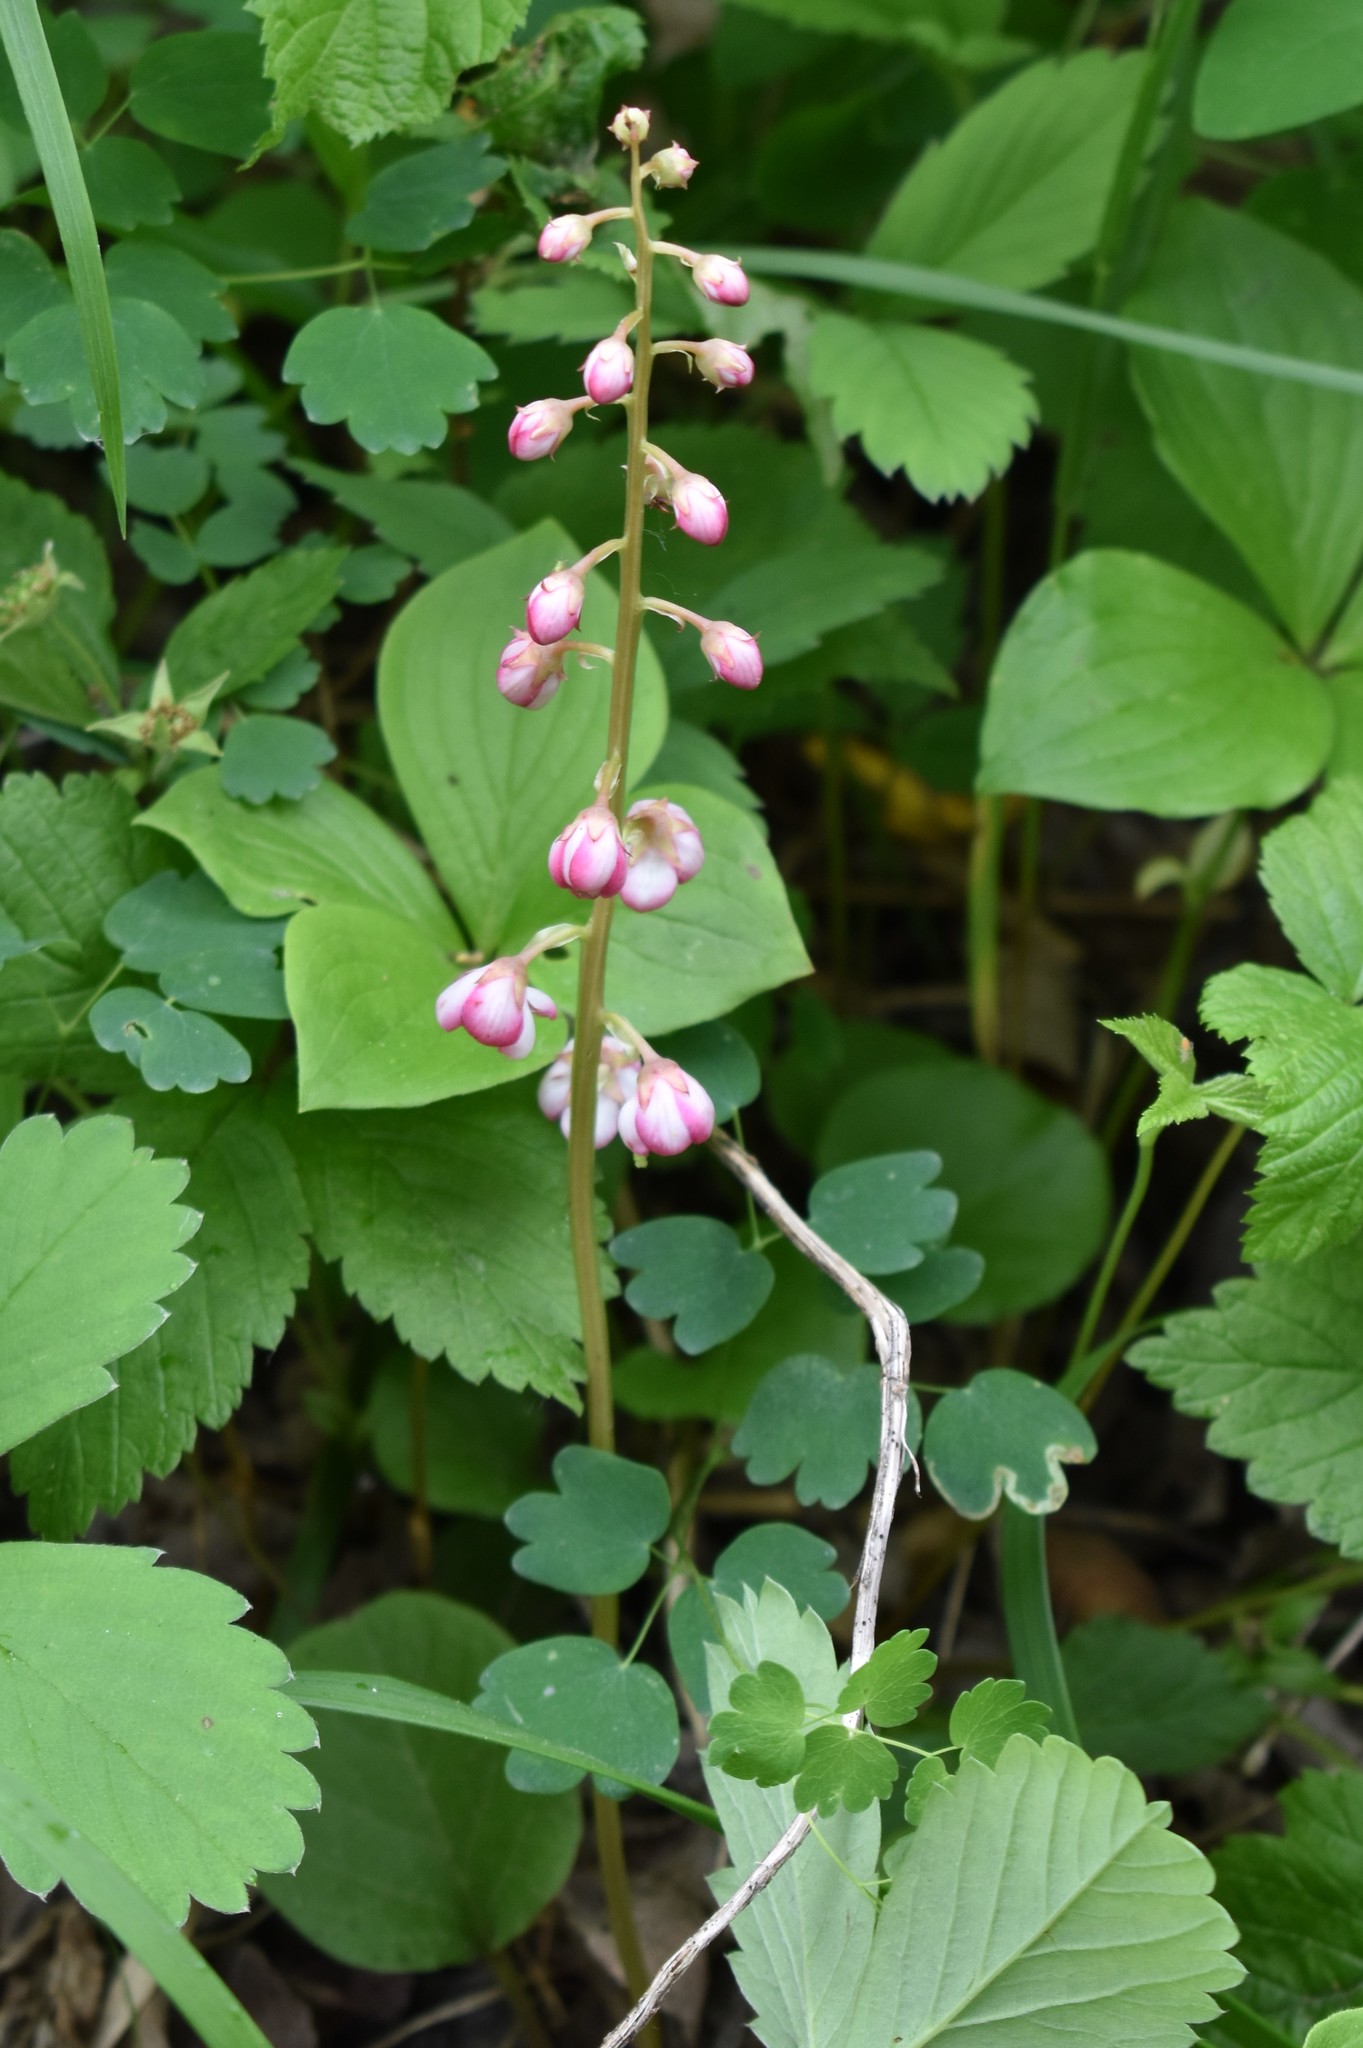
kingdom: Plantae
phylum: Tracheophyta
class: Magnoliopsida
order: Ericales
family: Ericaceae
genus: Pyrola
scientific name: Pyrola asarifolia
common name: Bog wintergreen
